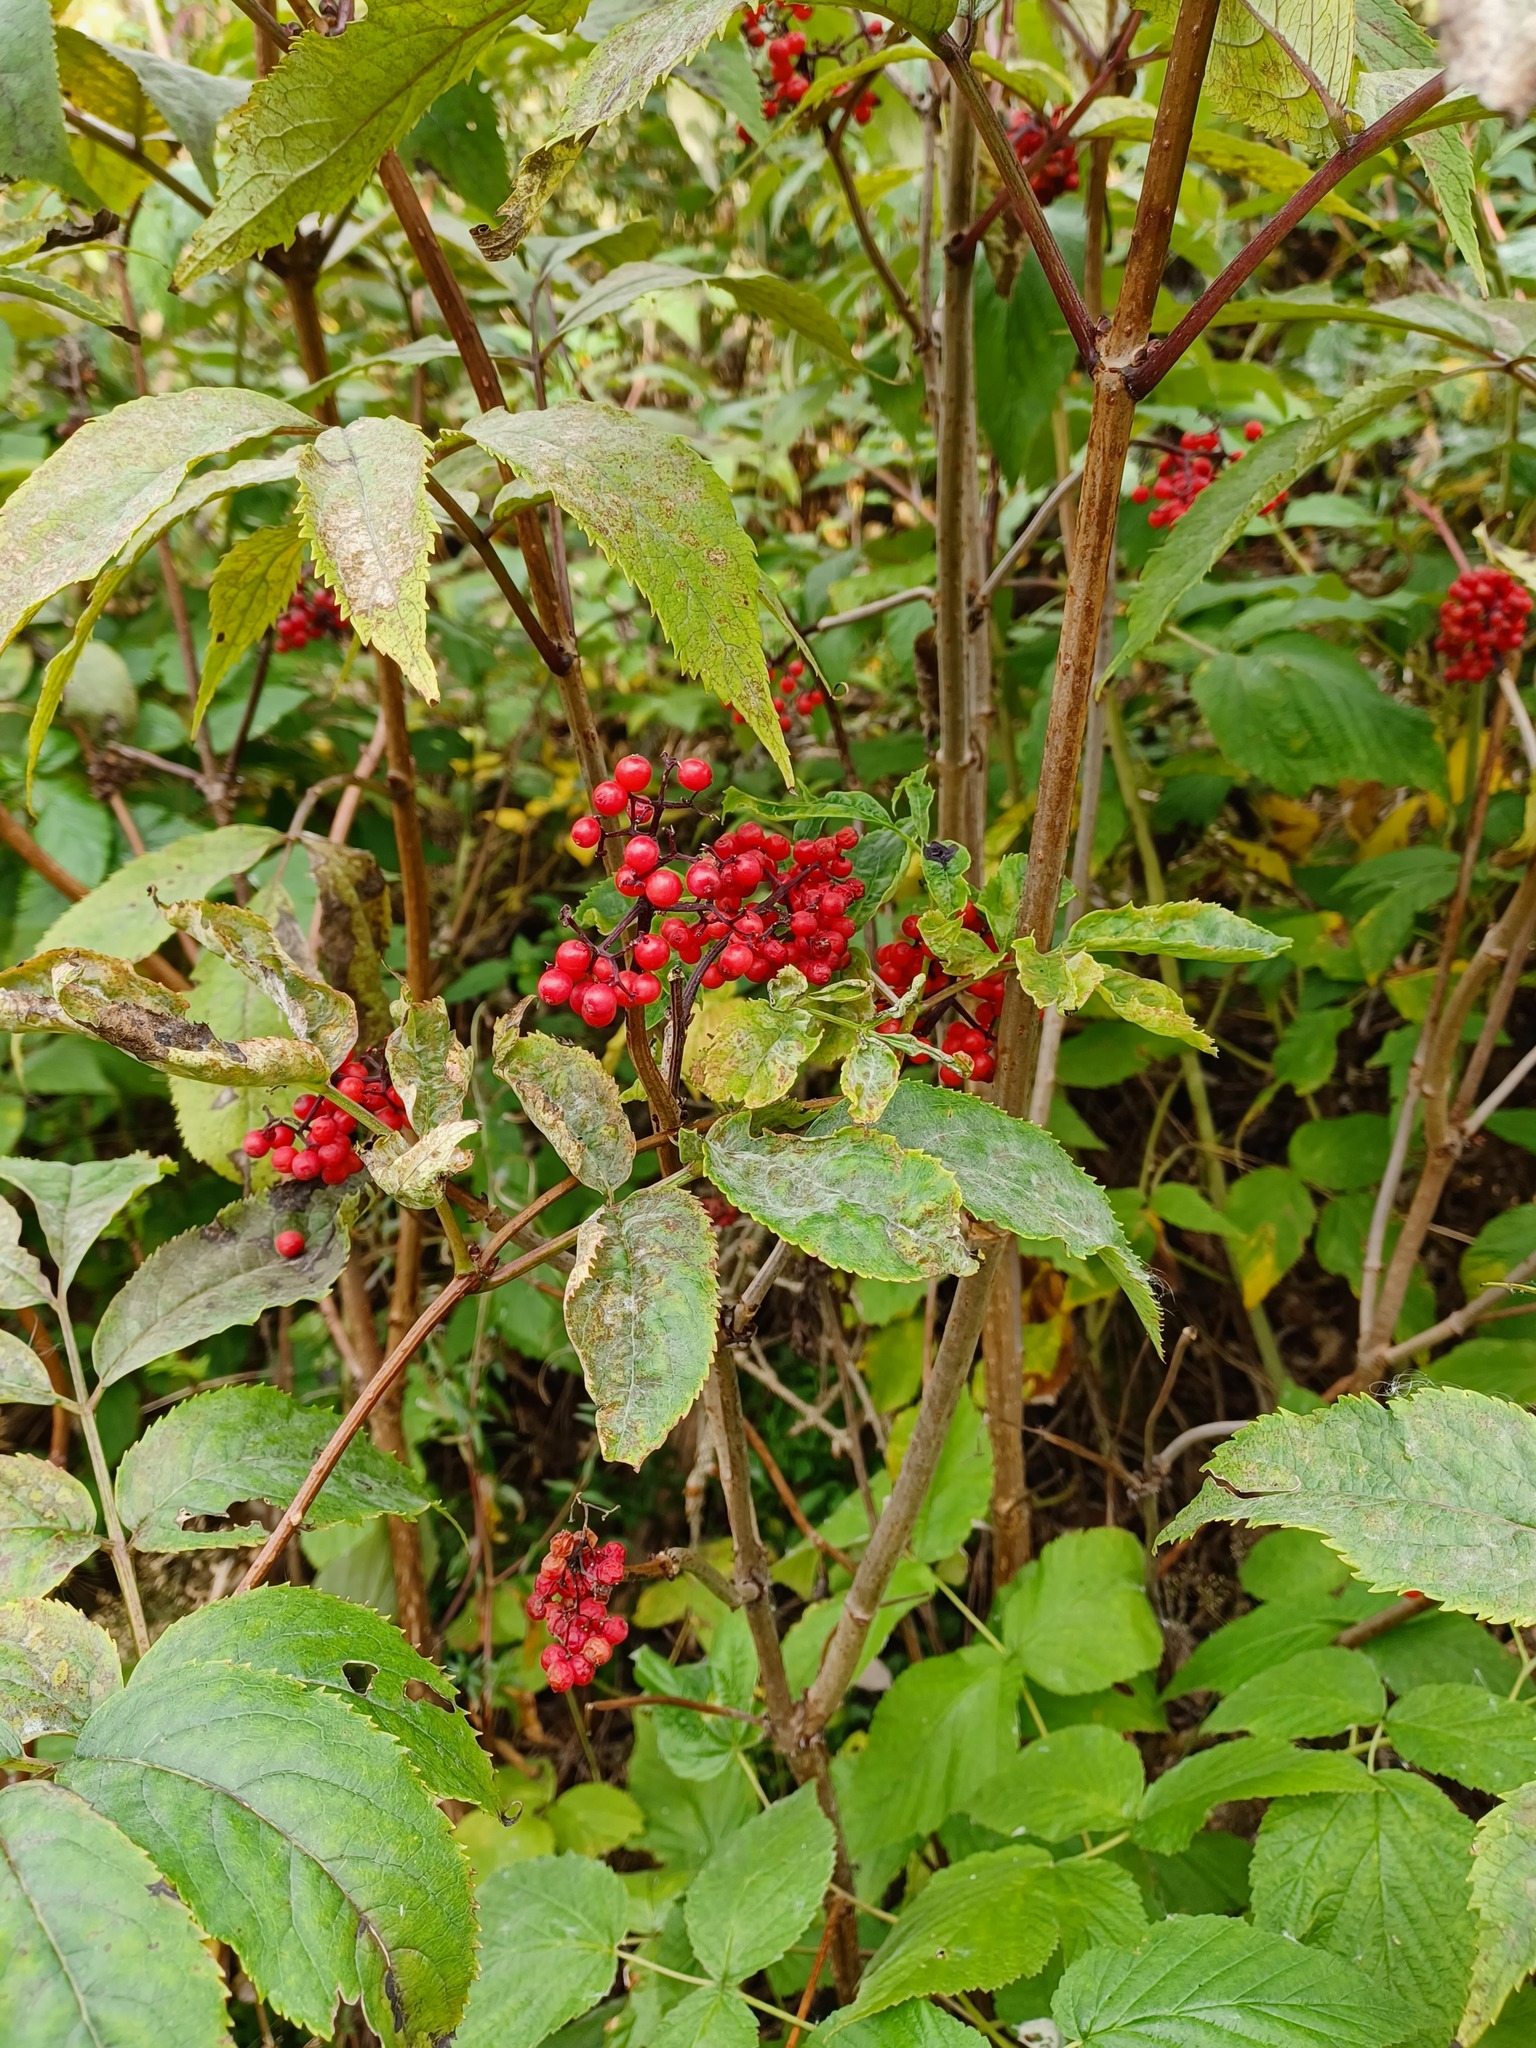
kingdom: Plantae
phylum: Tracheophyta
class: Magnoliopsida
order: Dipsacales
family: Viburnaceae
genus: Sambucus
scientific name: Sambucus racemosa
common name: Red-berried elder
